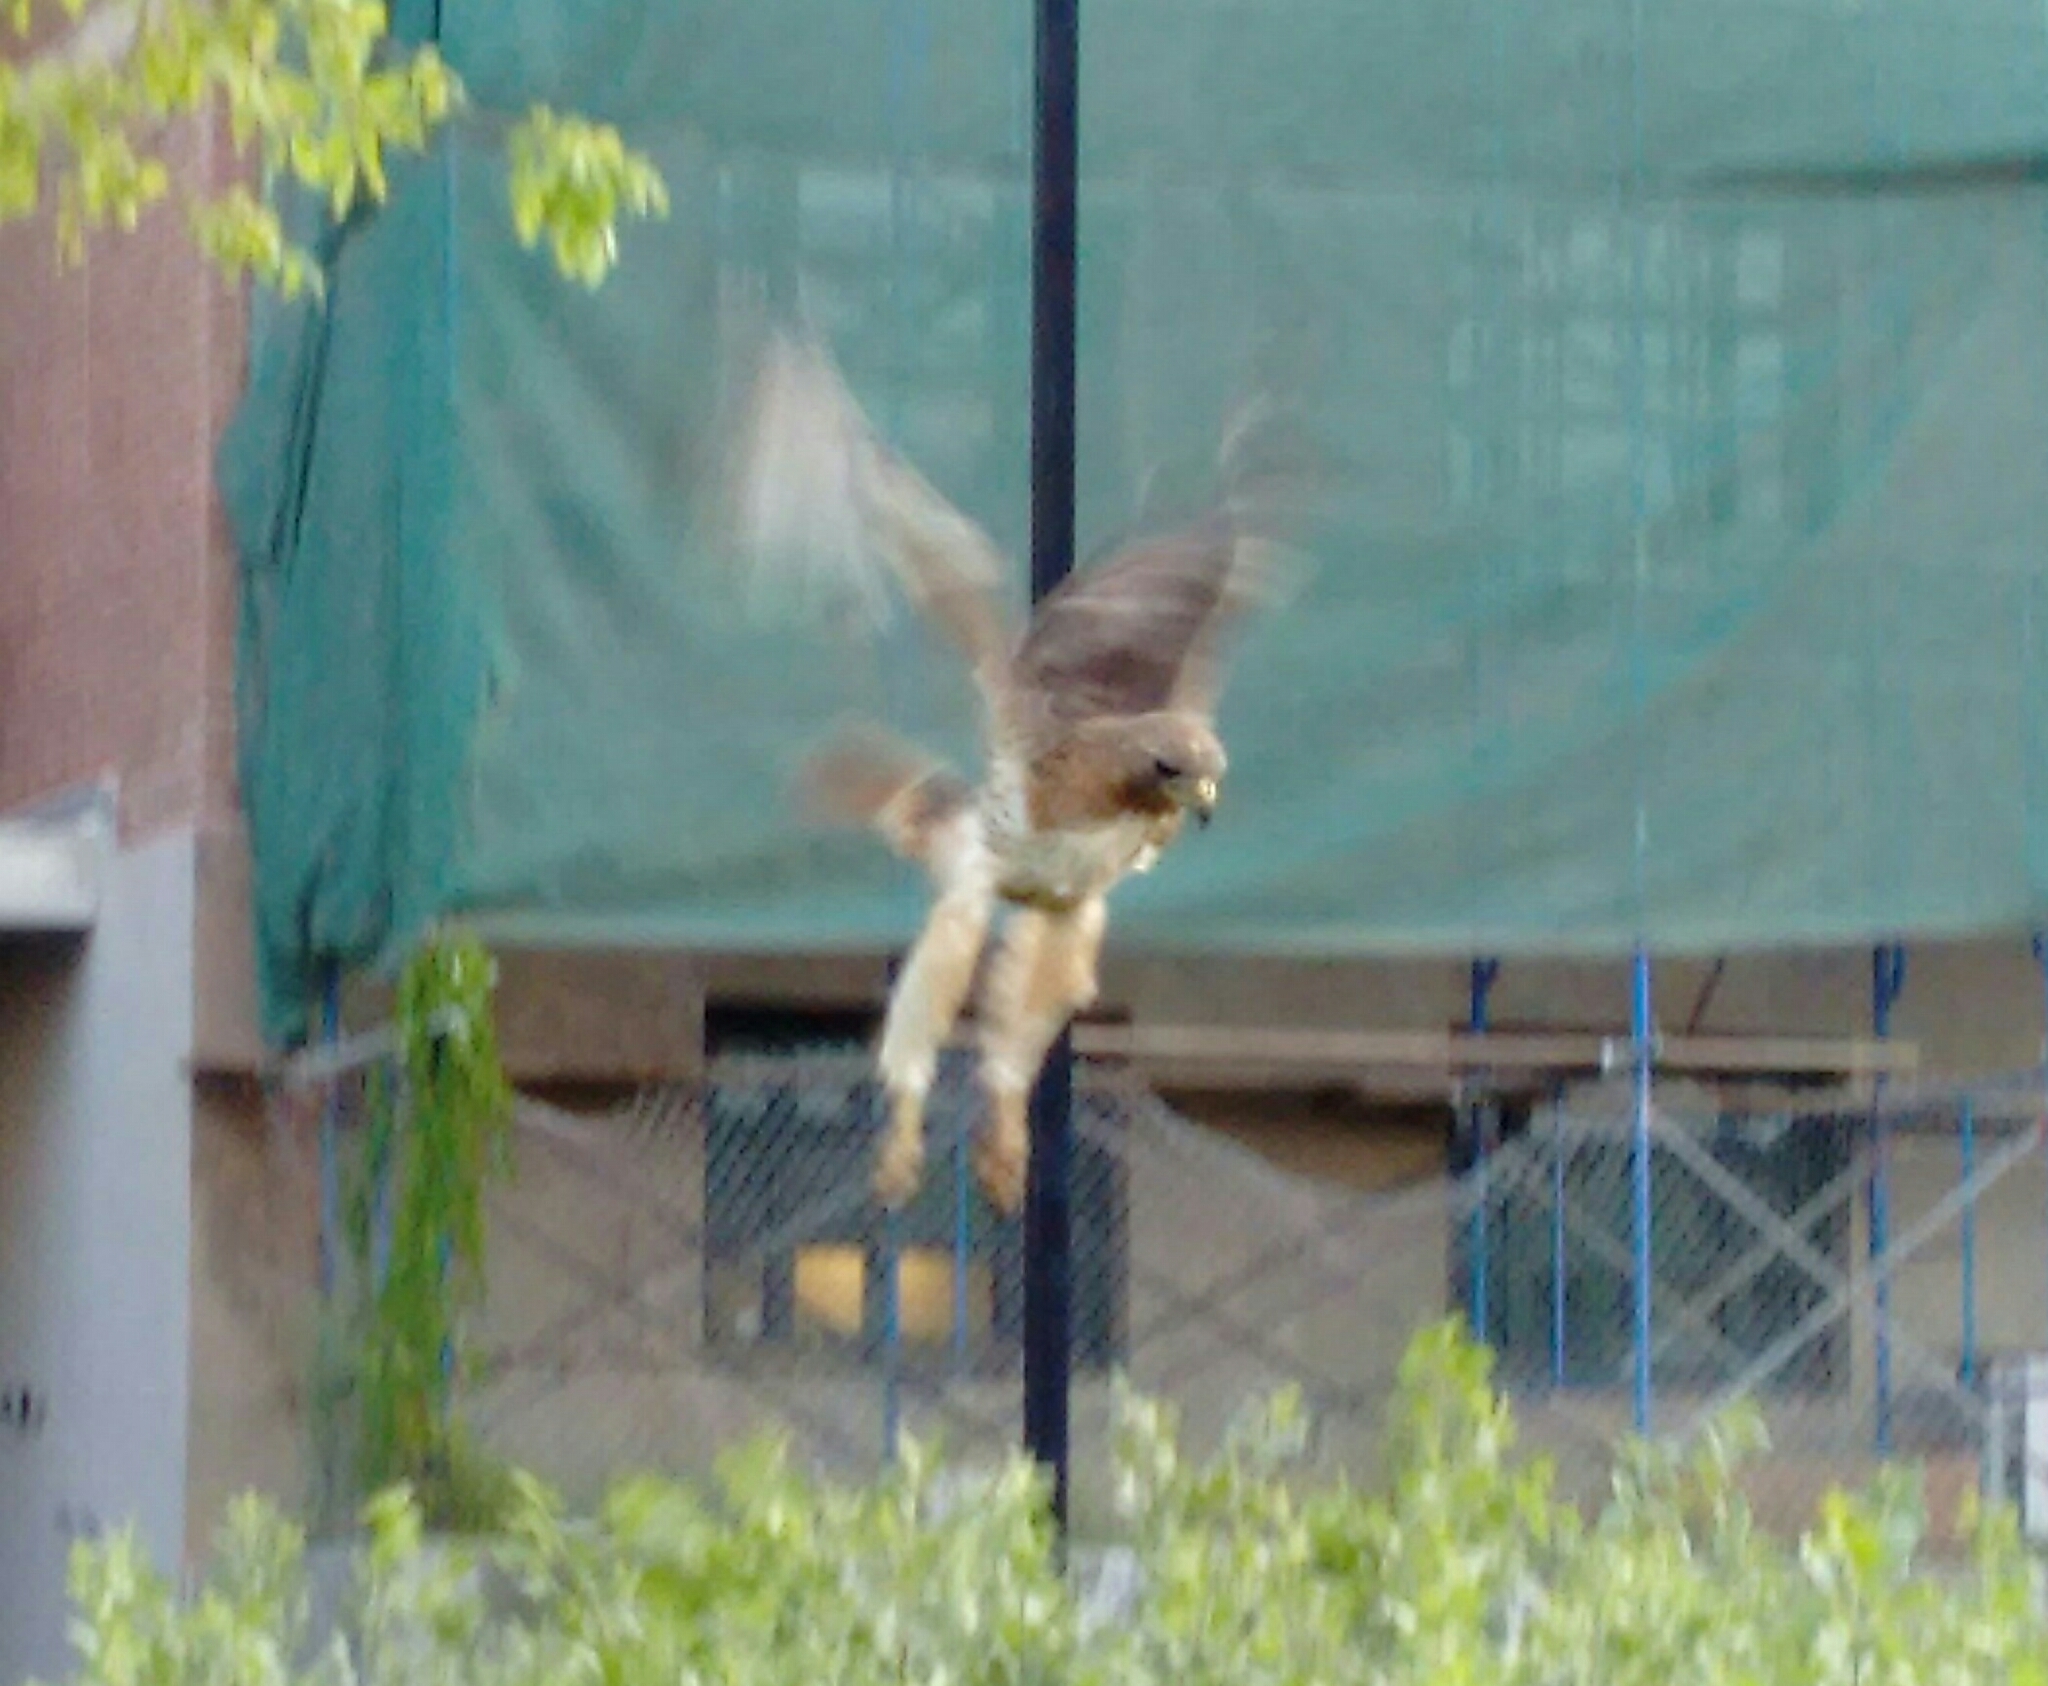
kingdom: Animalia
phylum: Chordata
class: Aves
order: Accipitriformes
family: Accipitridae
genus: Buteo
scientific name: Buteo jamaicensis
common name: Red-tailed hawk
